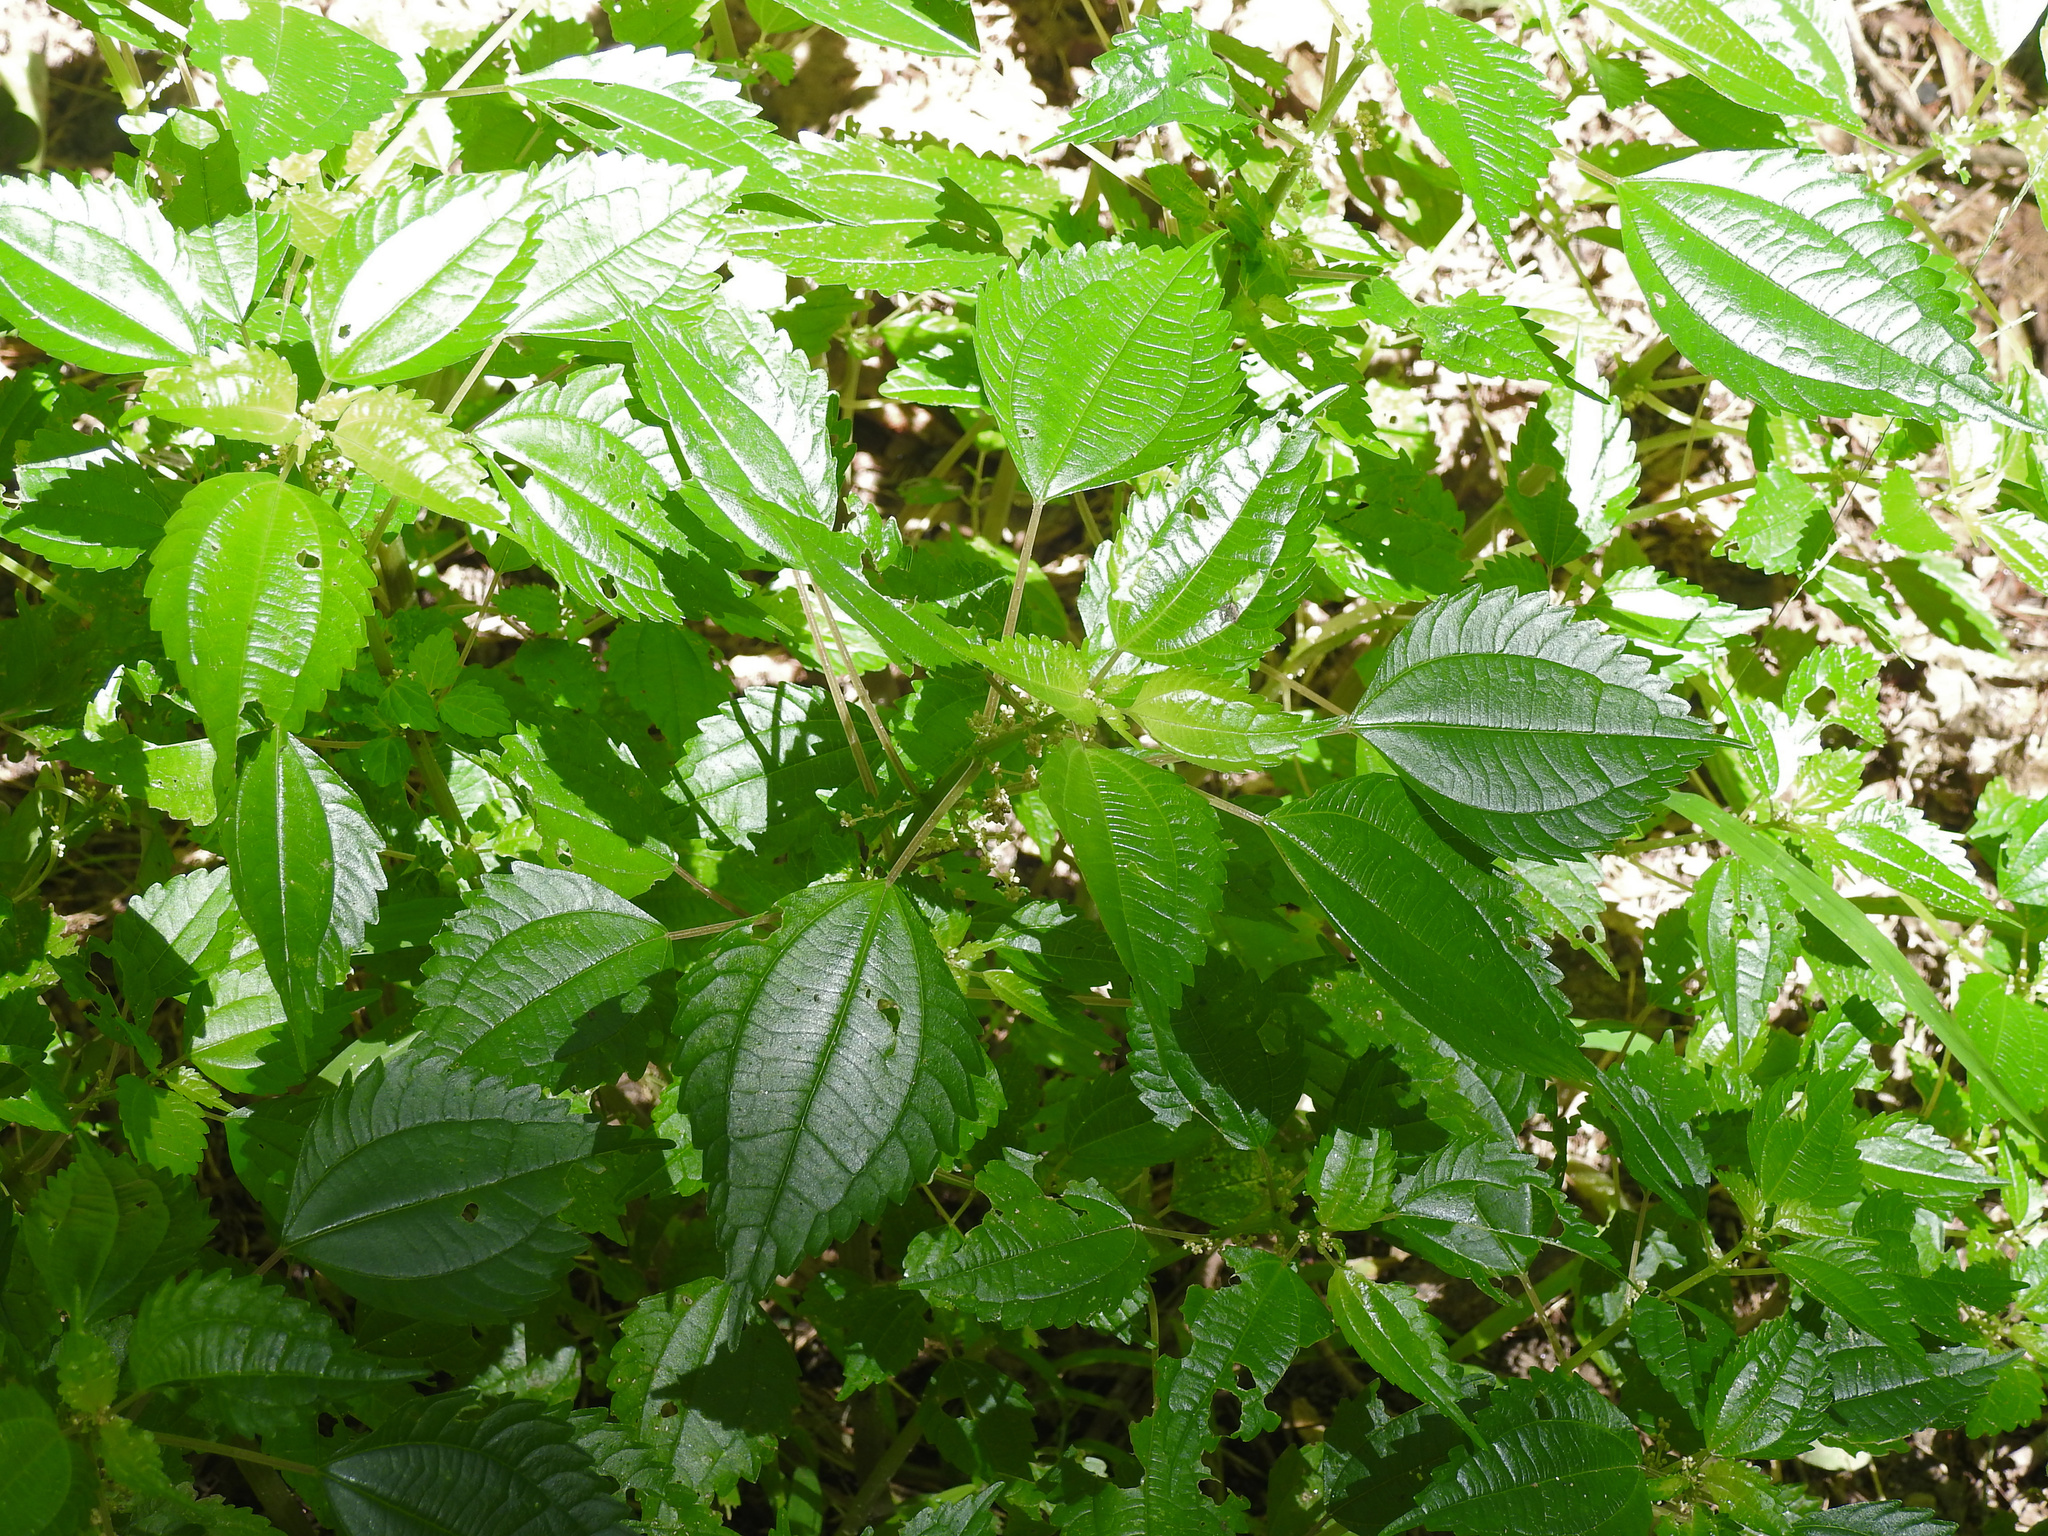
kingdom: Plantae
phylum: Tracheophyta
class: Magnoliopsida
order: Rosales
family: Urticaceae
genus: Pilea
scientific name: Pilea pumila
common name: Clearweed
